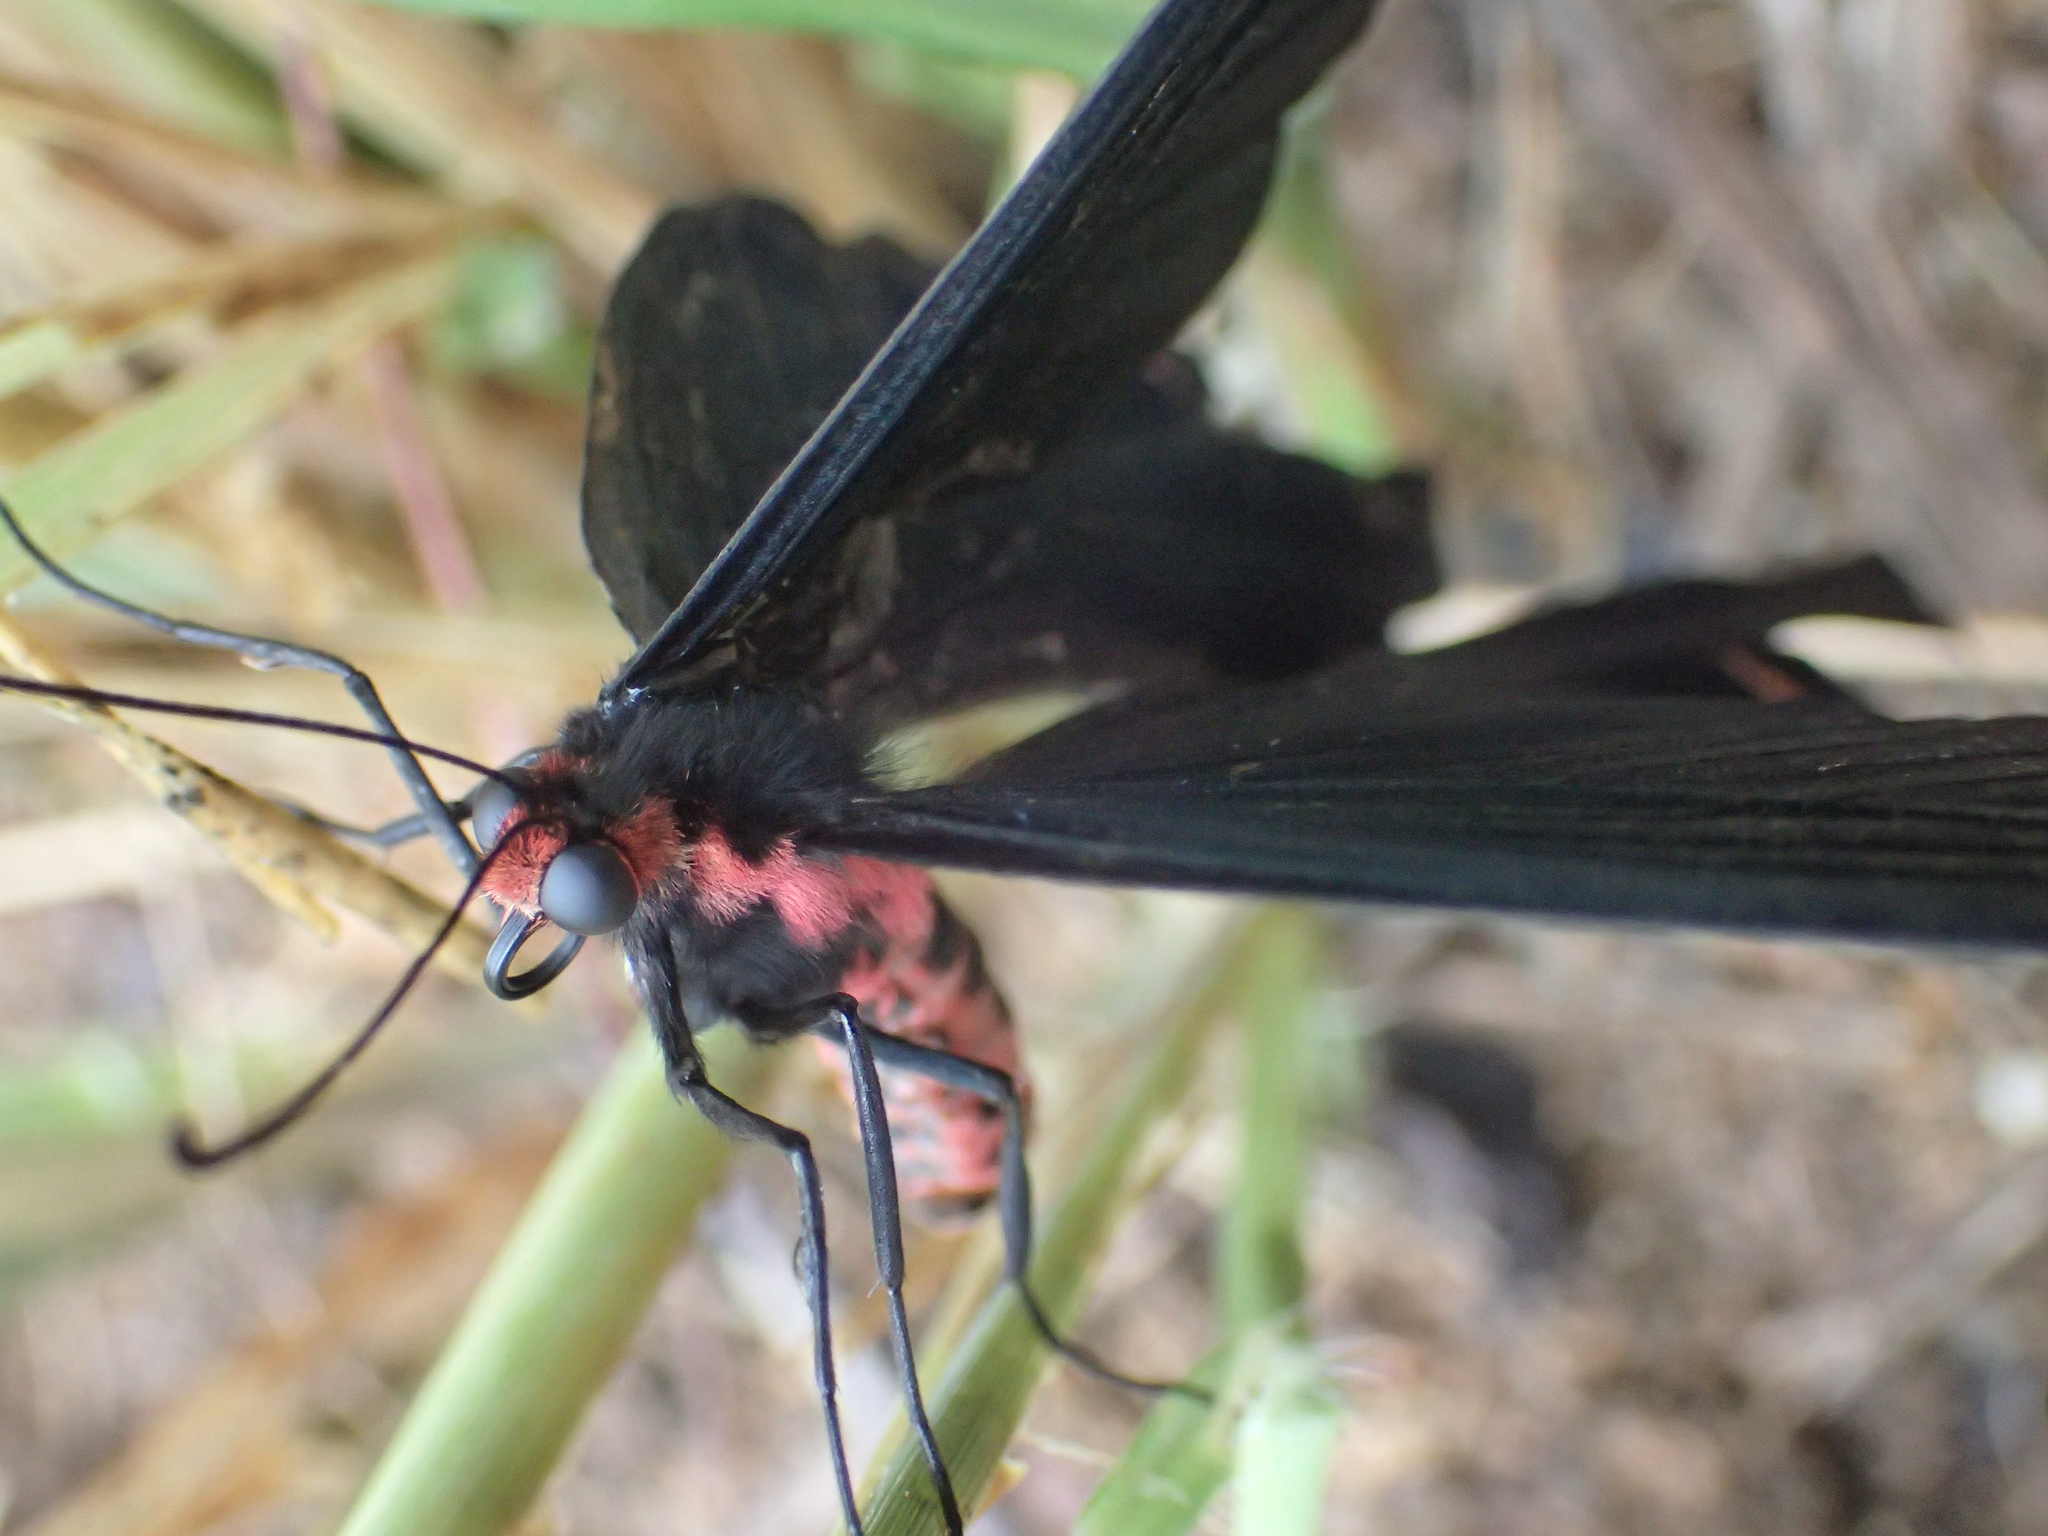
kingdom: Animalia
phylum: Arthropoda
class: Insecta
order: Lepidoptera
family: Papilionidae
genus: Byasa
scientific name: Byasa alcinous
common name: Chinese windmill
